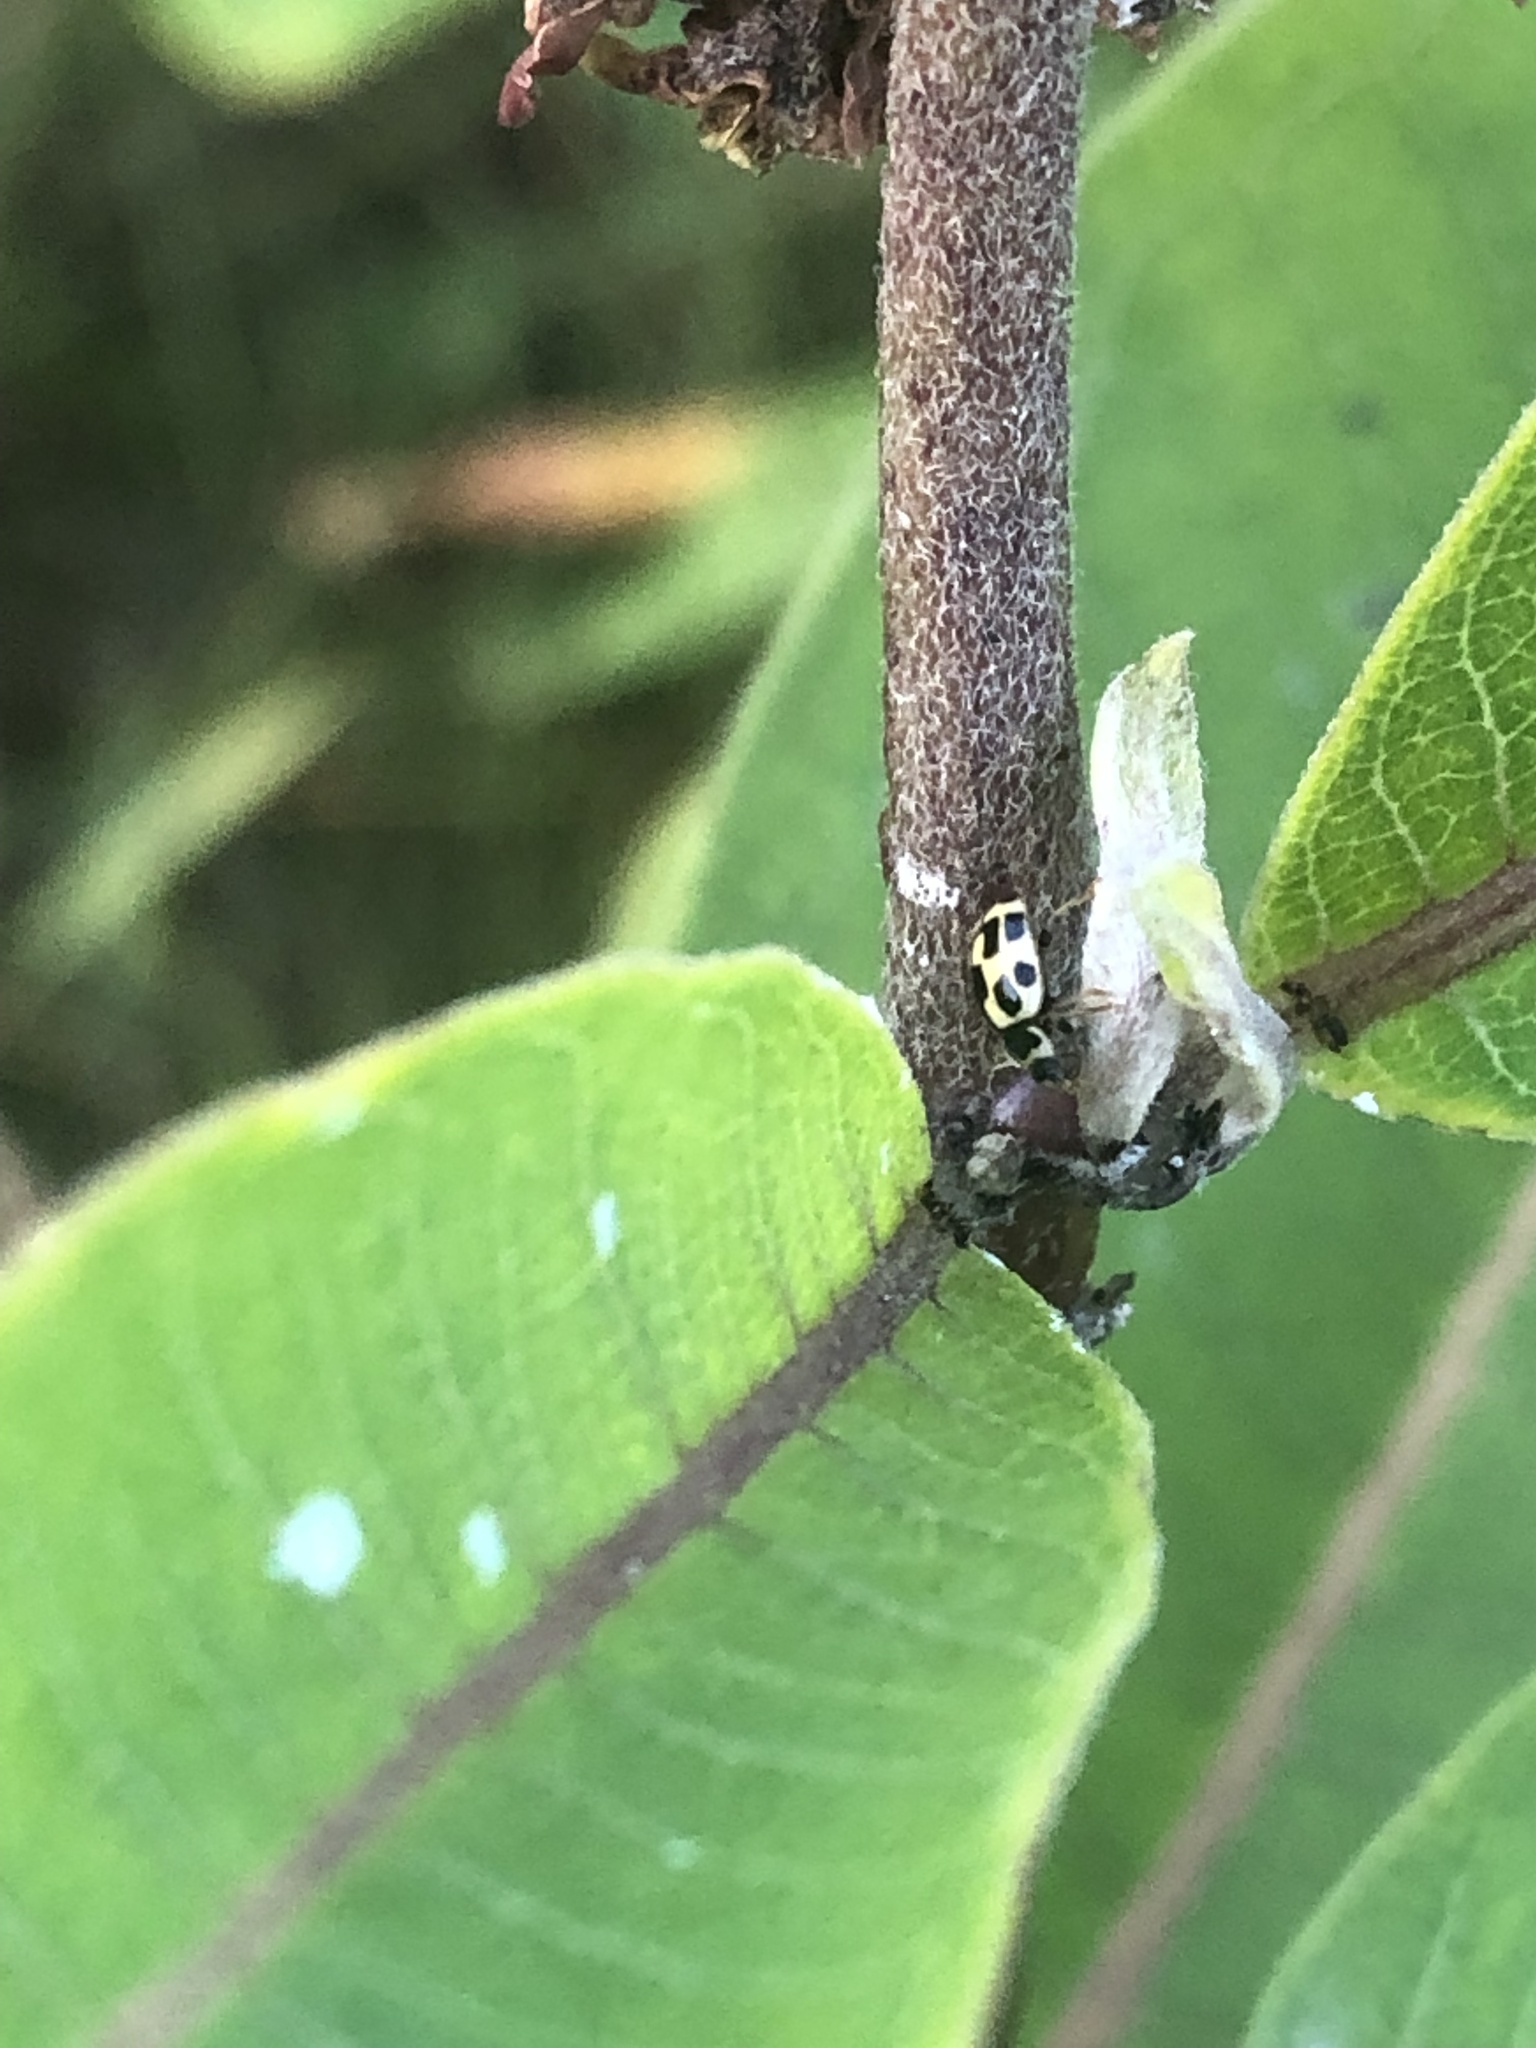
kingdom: Animalia
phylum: Arthropoda
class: Insecta
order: Coleoptera
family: Coccinellidae
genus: Propylaea
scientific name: Propylaea quatuordecimpunctata
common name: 14-spotted ladybird beetle
